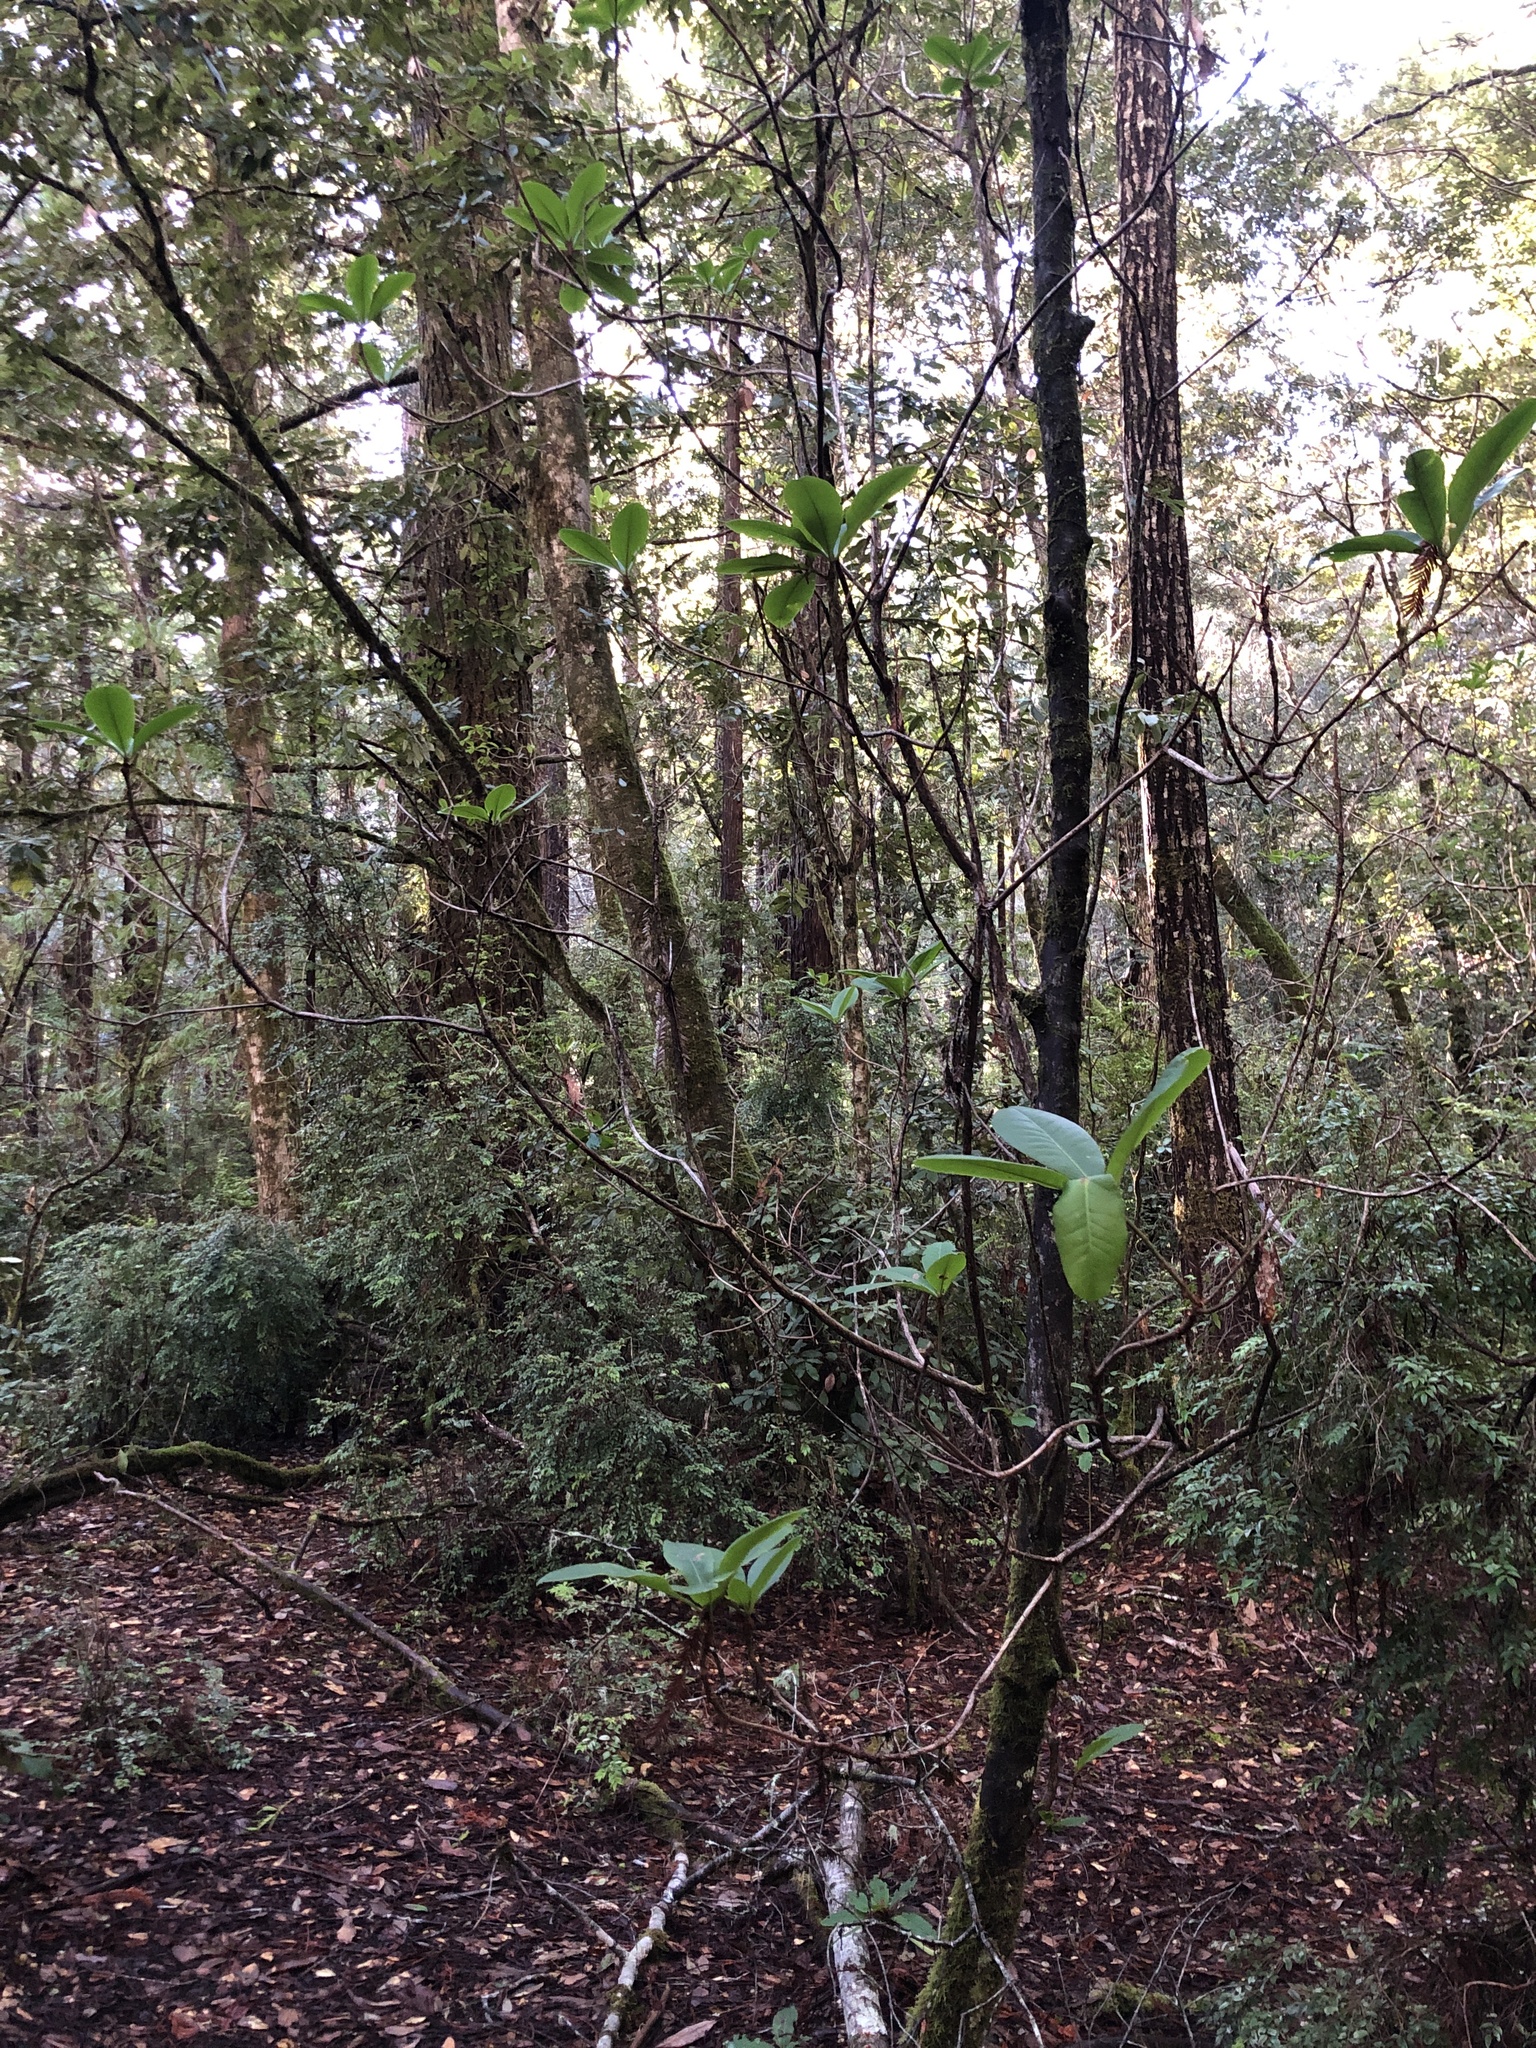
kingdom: Plantae
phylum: Tracheophyta
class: Magnoliopsida
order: Ericales
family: Ericaceae
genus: Rhododendron
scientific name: Rhododendron macrophyllum
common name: California rose bay
